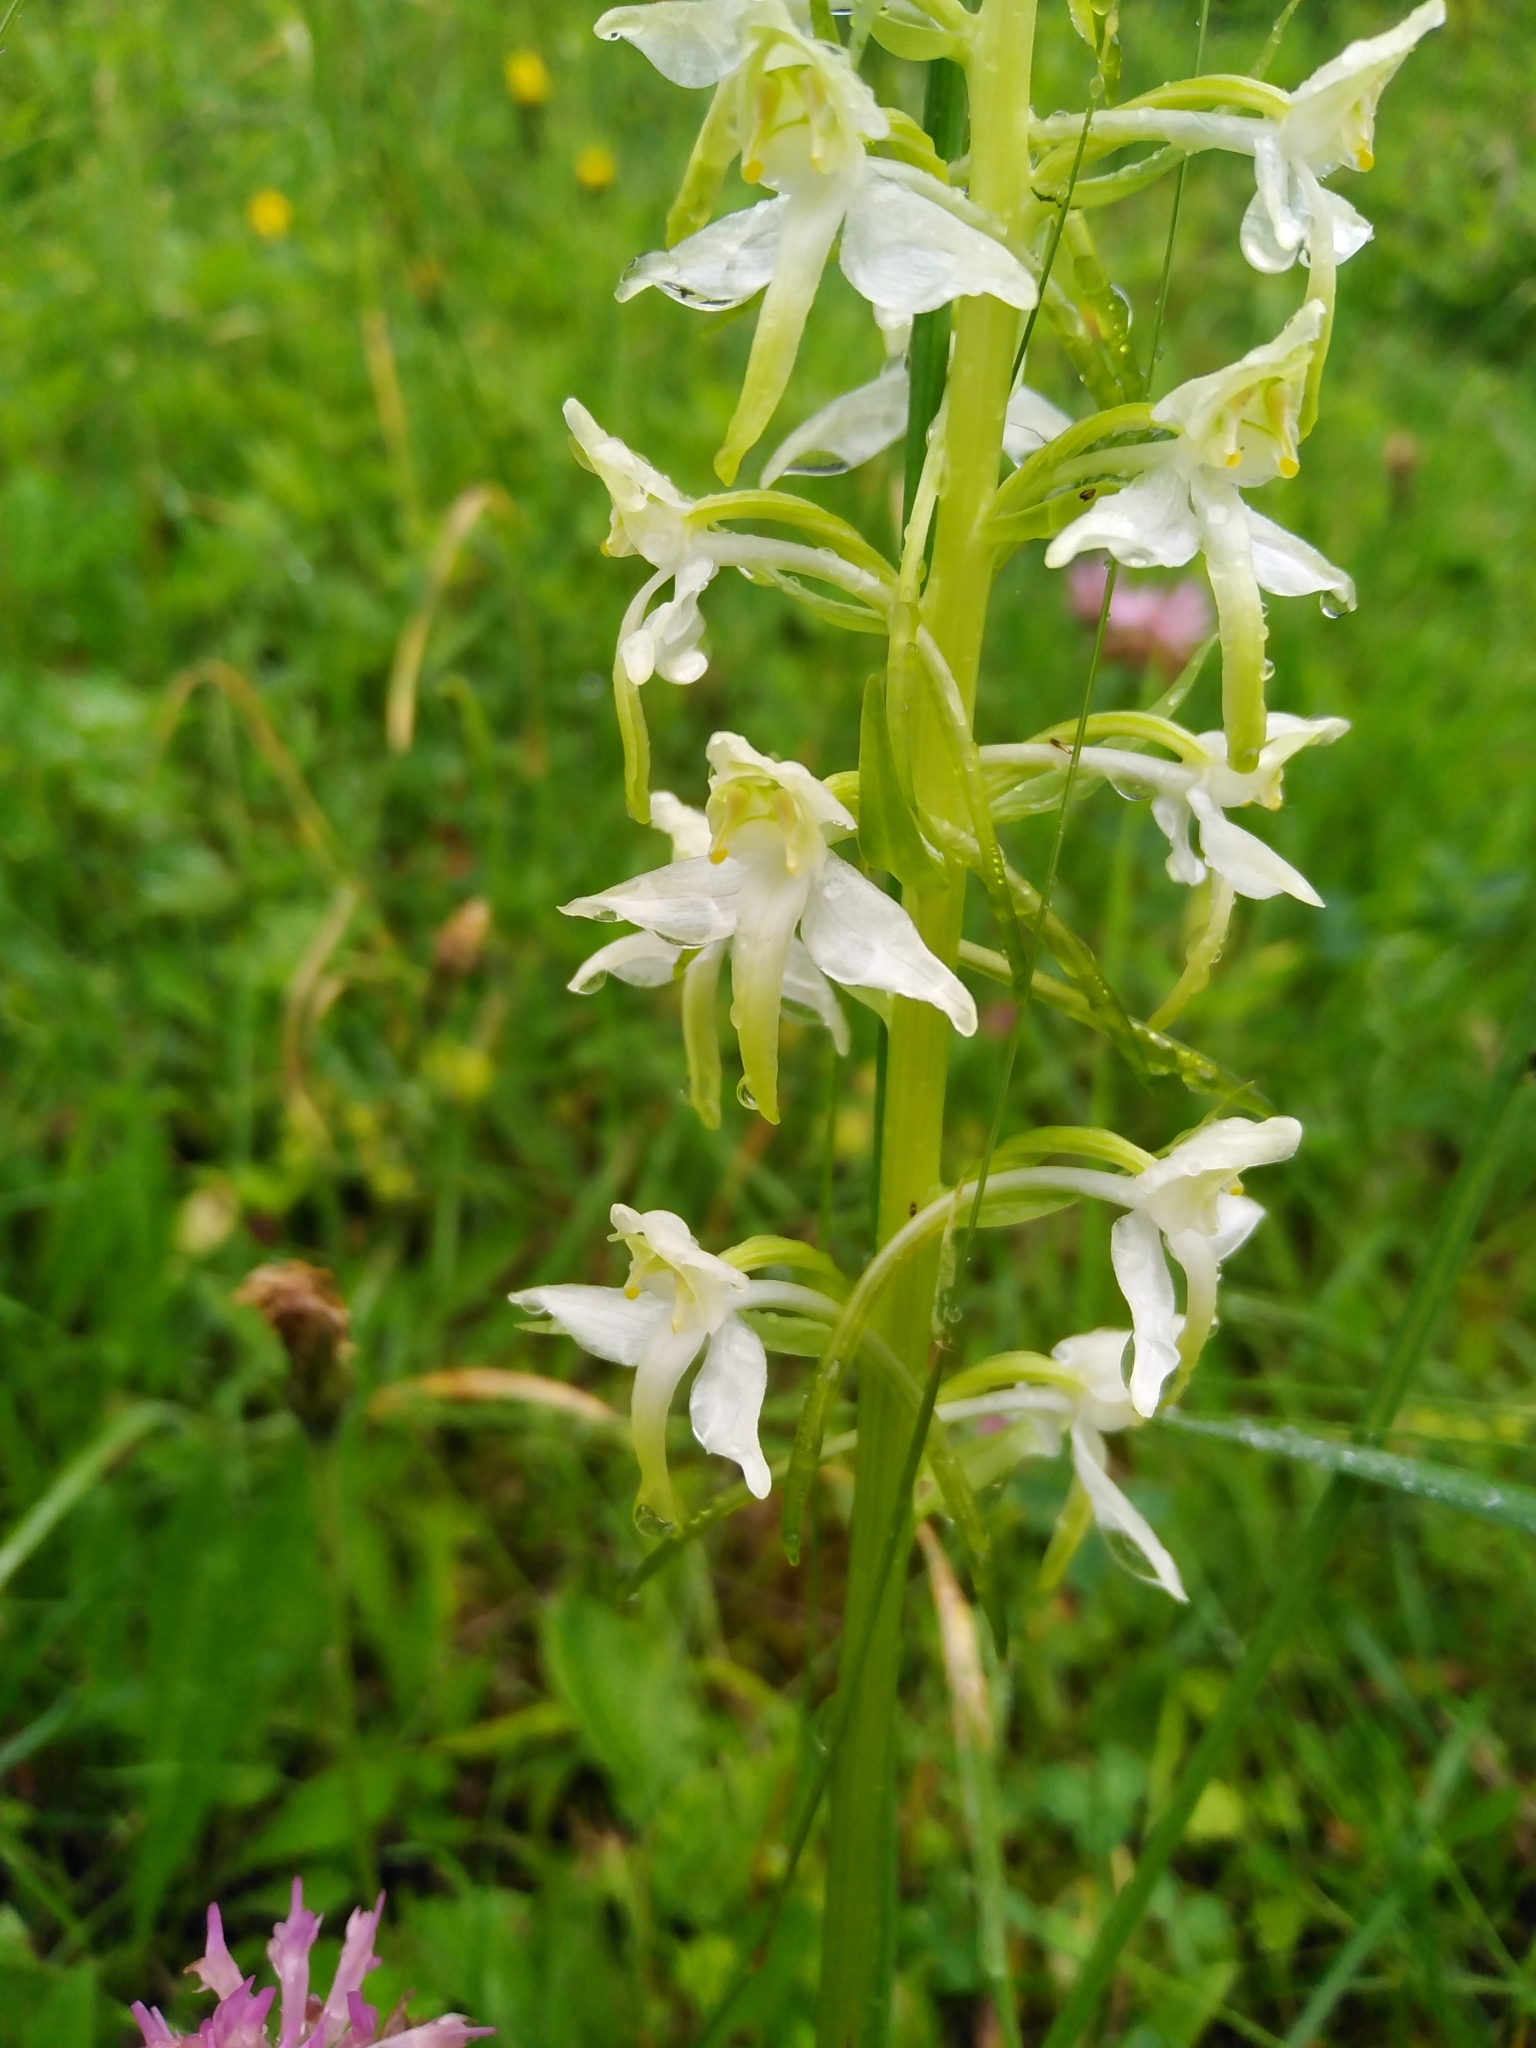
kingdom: Plantae
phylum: Tracheophyta
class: Liliopsida
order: Asparagales
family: Orchidaceae
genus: Platanthera
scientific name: Platanthera chlorantha
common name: Greater butterfly-orchid
